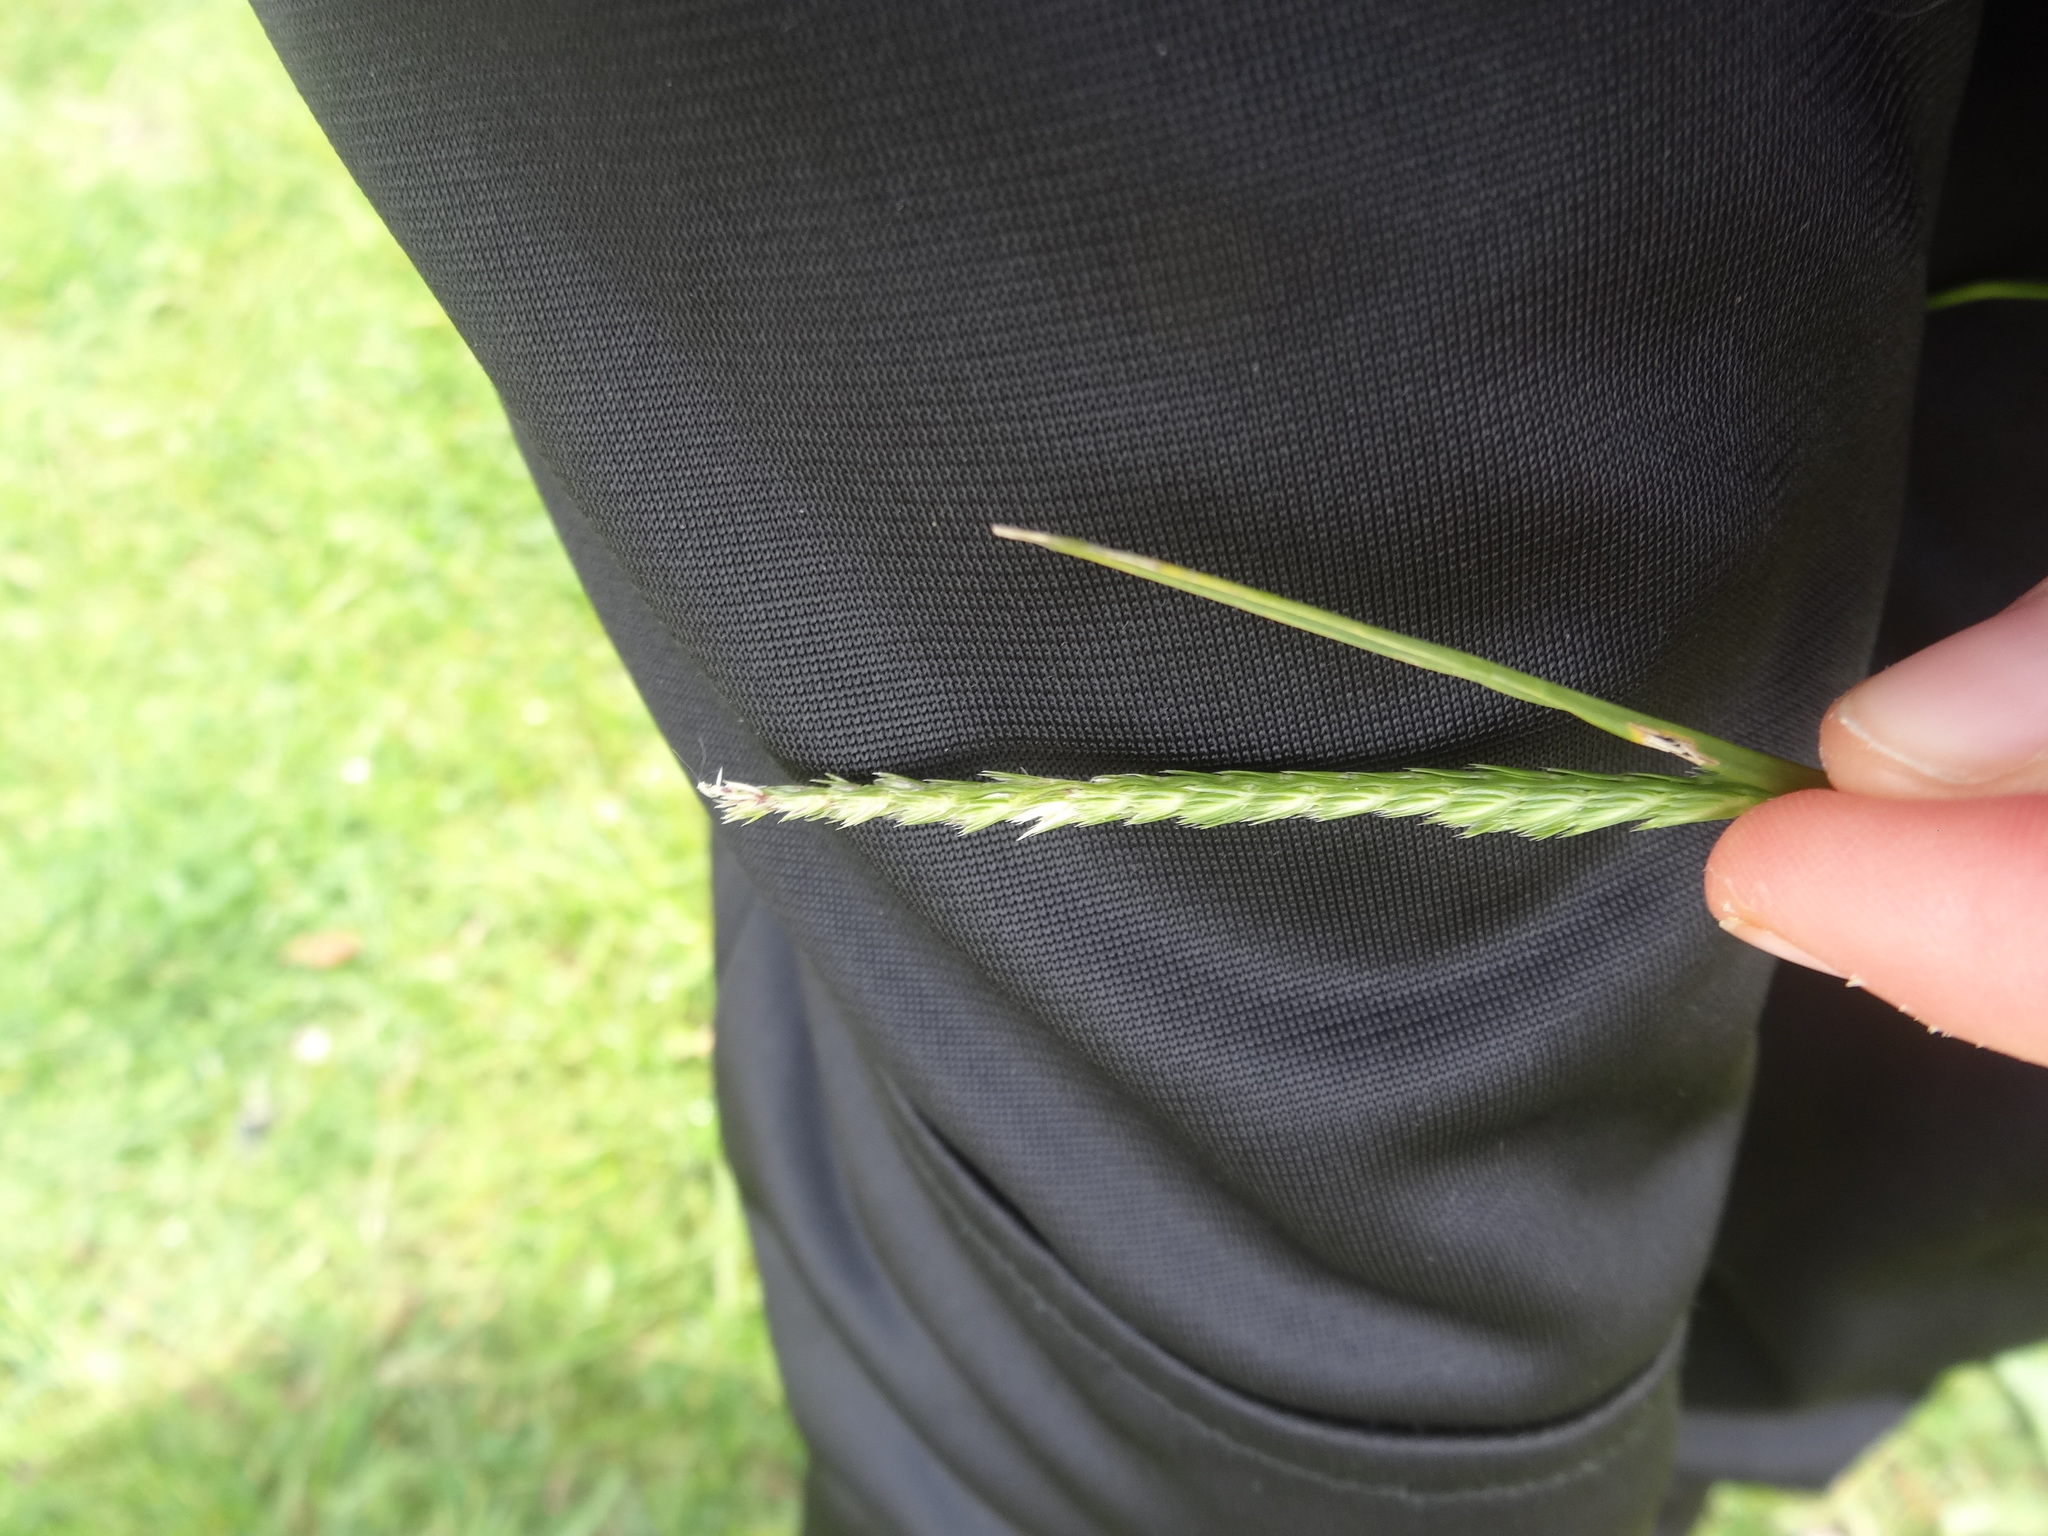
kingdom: Plantae
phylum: Tracheophyta
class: Liliopsida
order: Poales
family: Poaceae
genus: Cynosurus
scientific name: Cynosurus cristatus
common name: Crested dog's-tail
